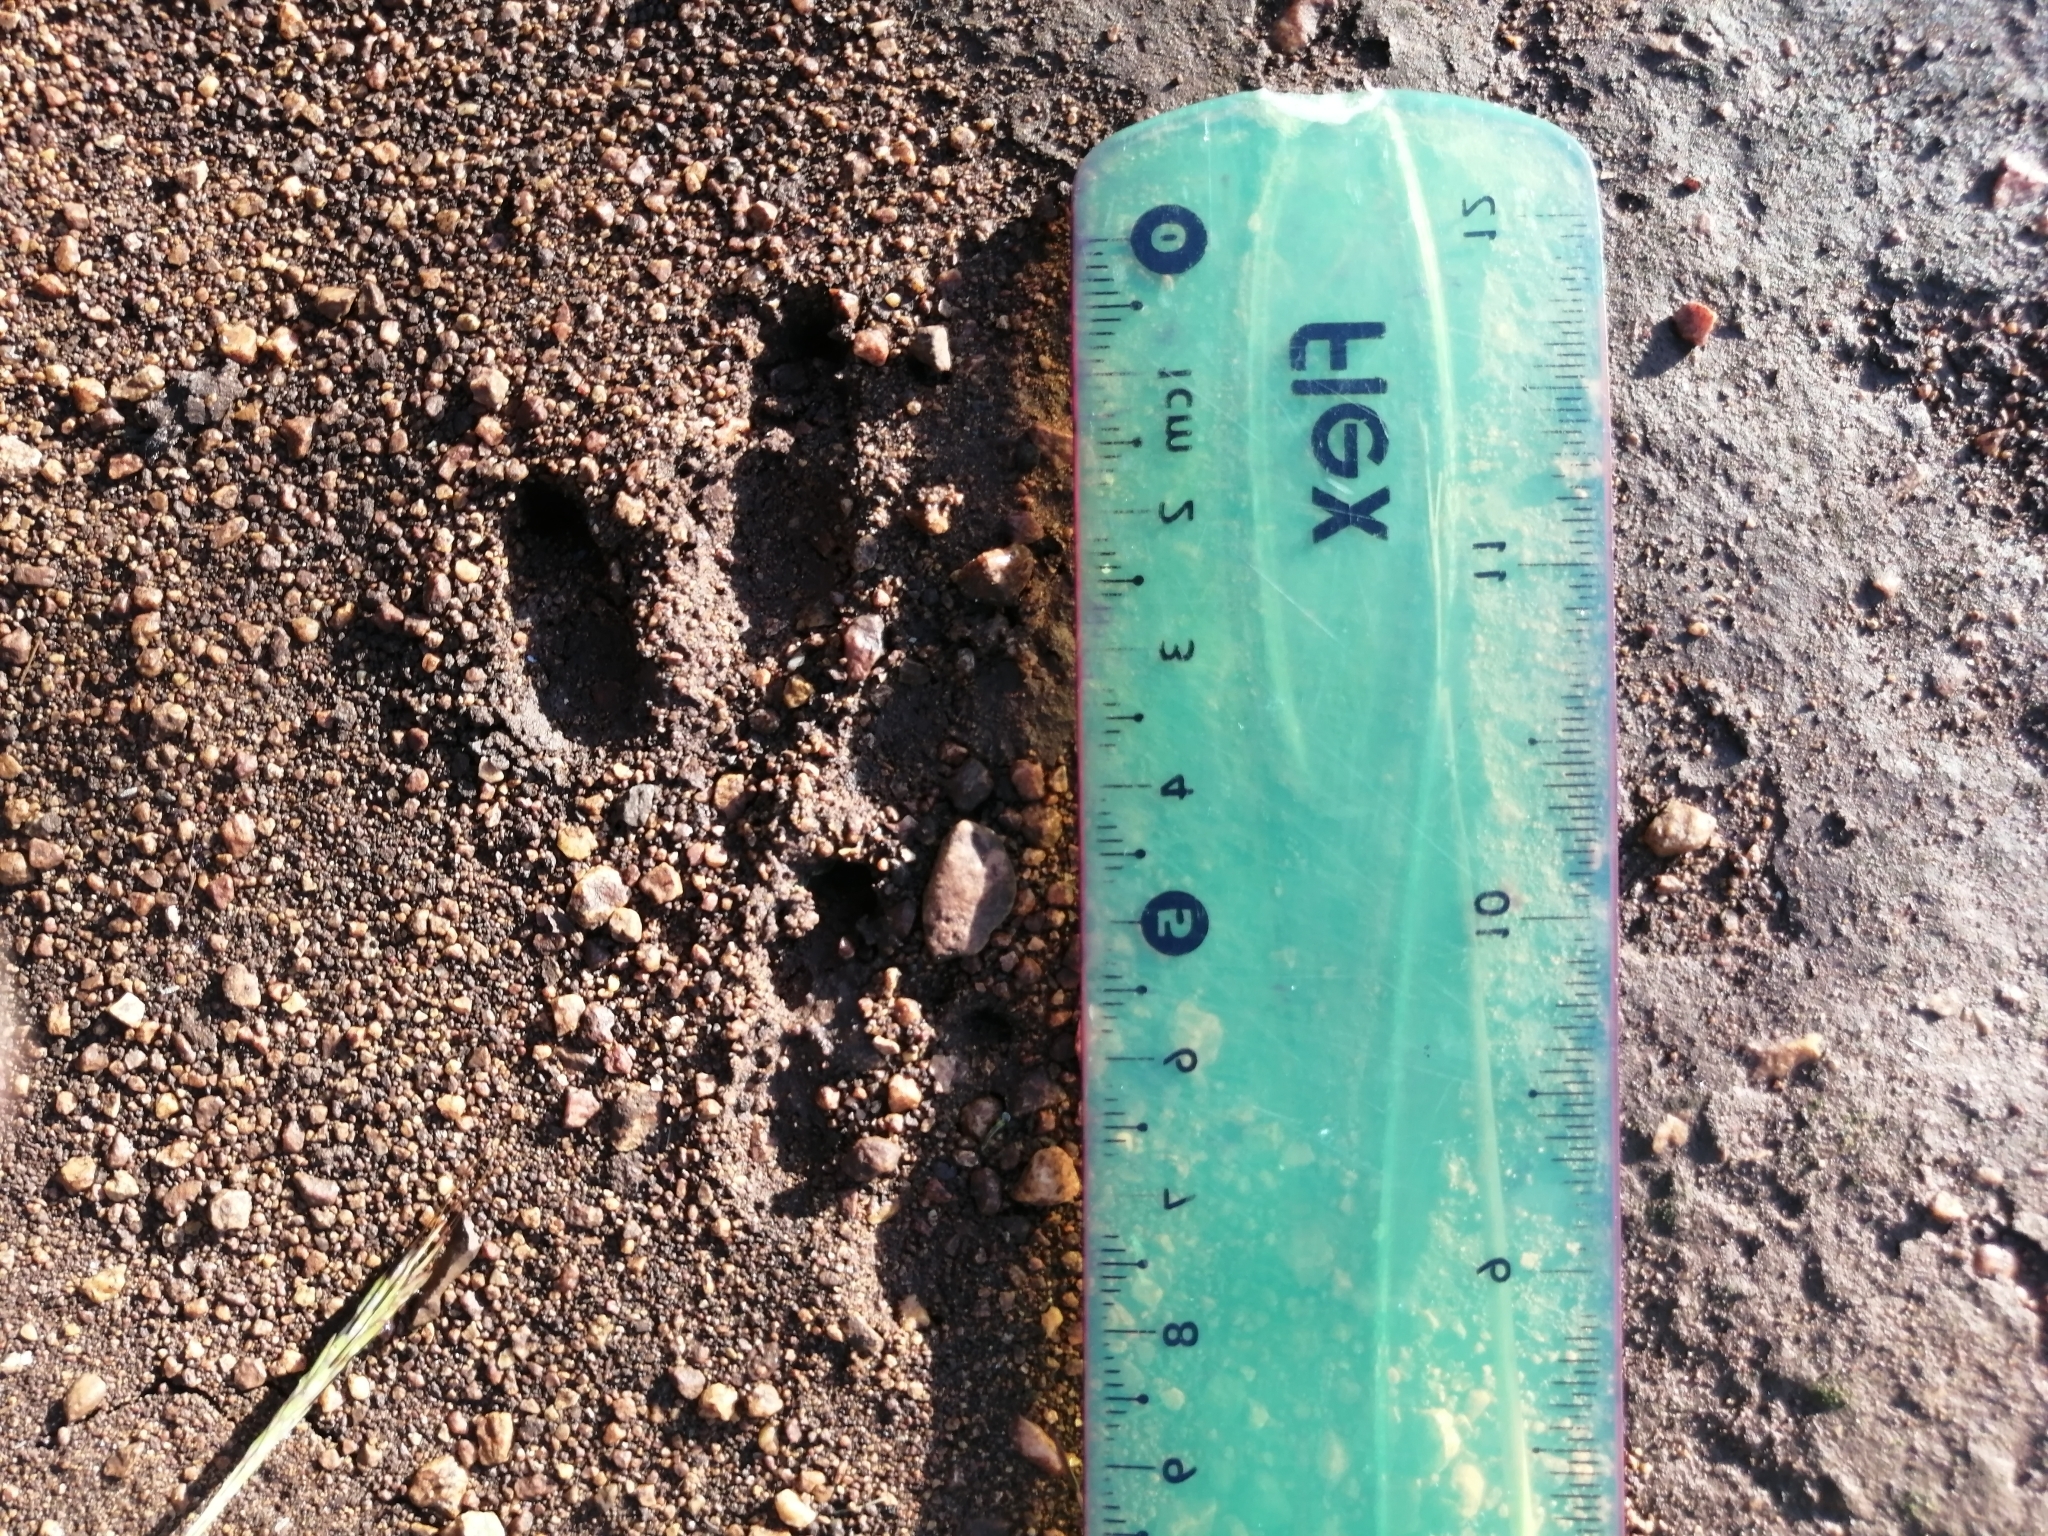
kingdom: Animalia
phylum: Chordata
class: Mammalia
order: Cingulata
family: Dasypodidae
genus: Dasypus
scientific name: Dasypus novemcinctus
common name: Nine-banded armadillo
